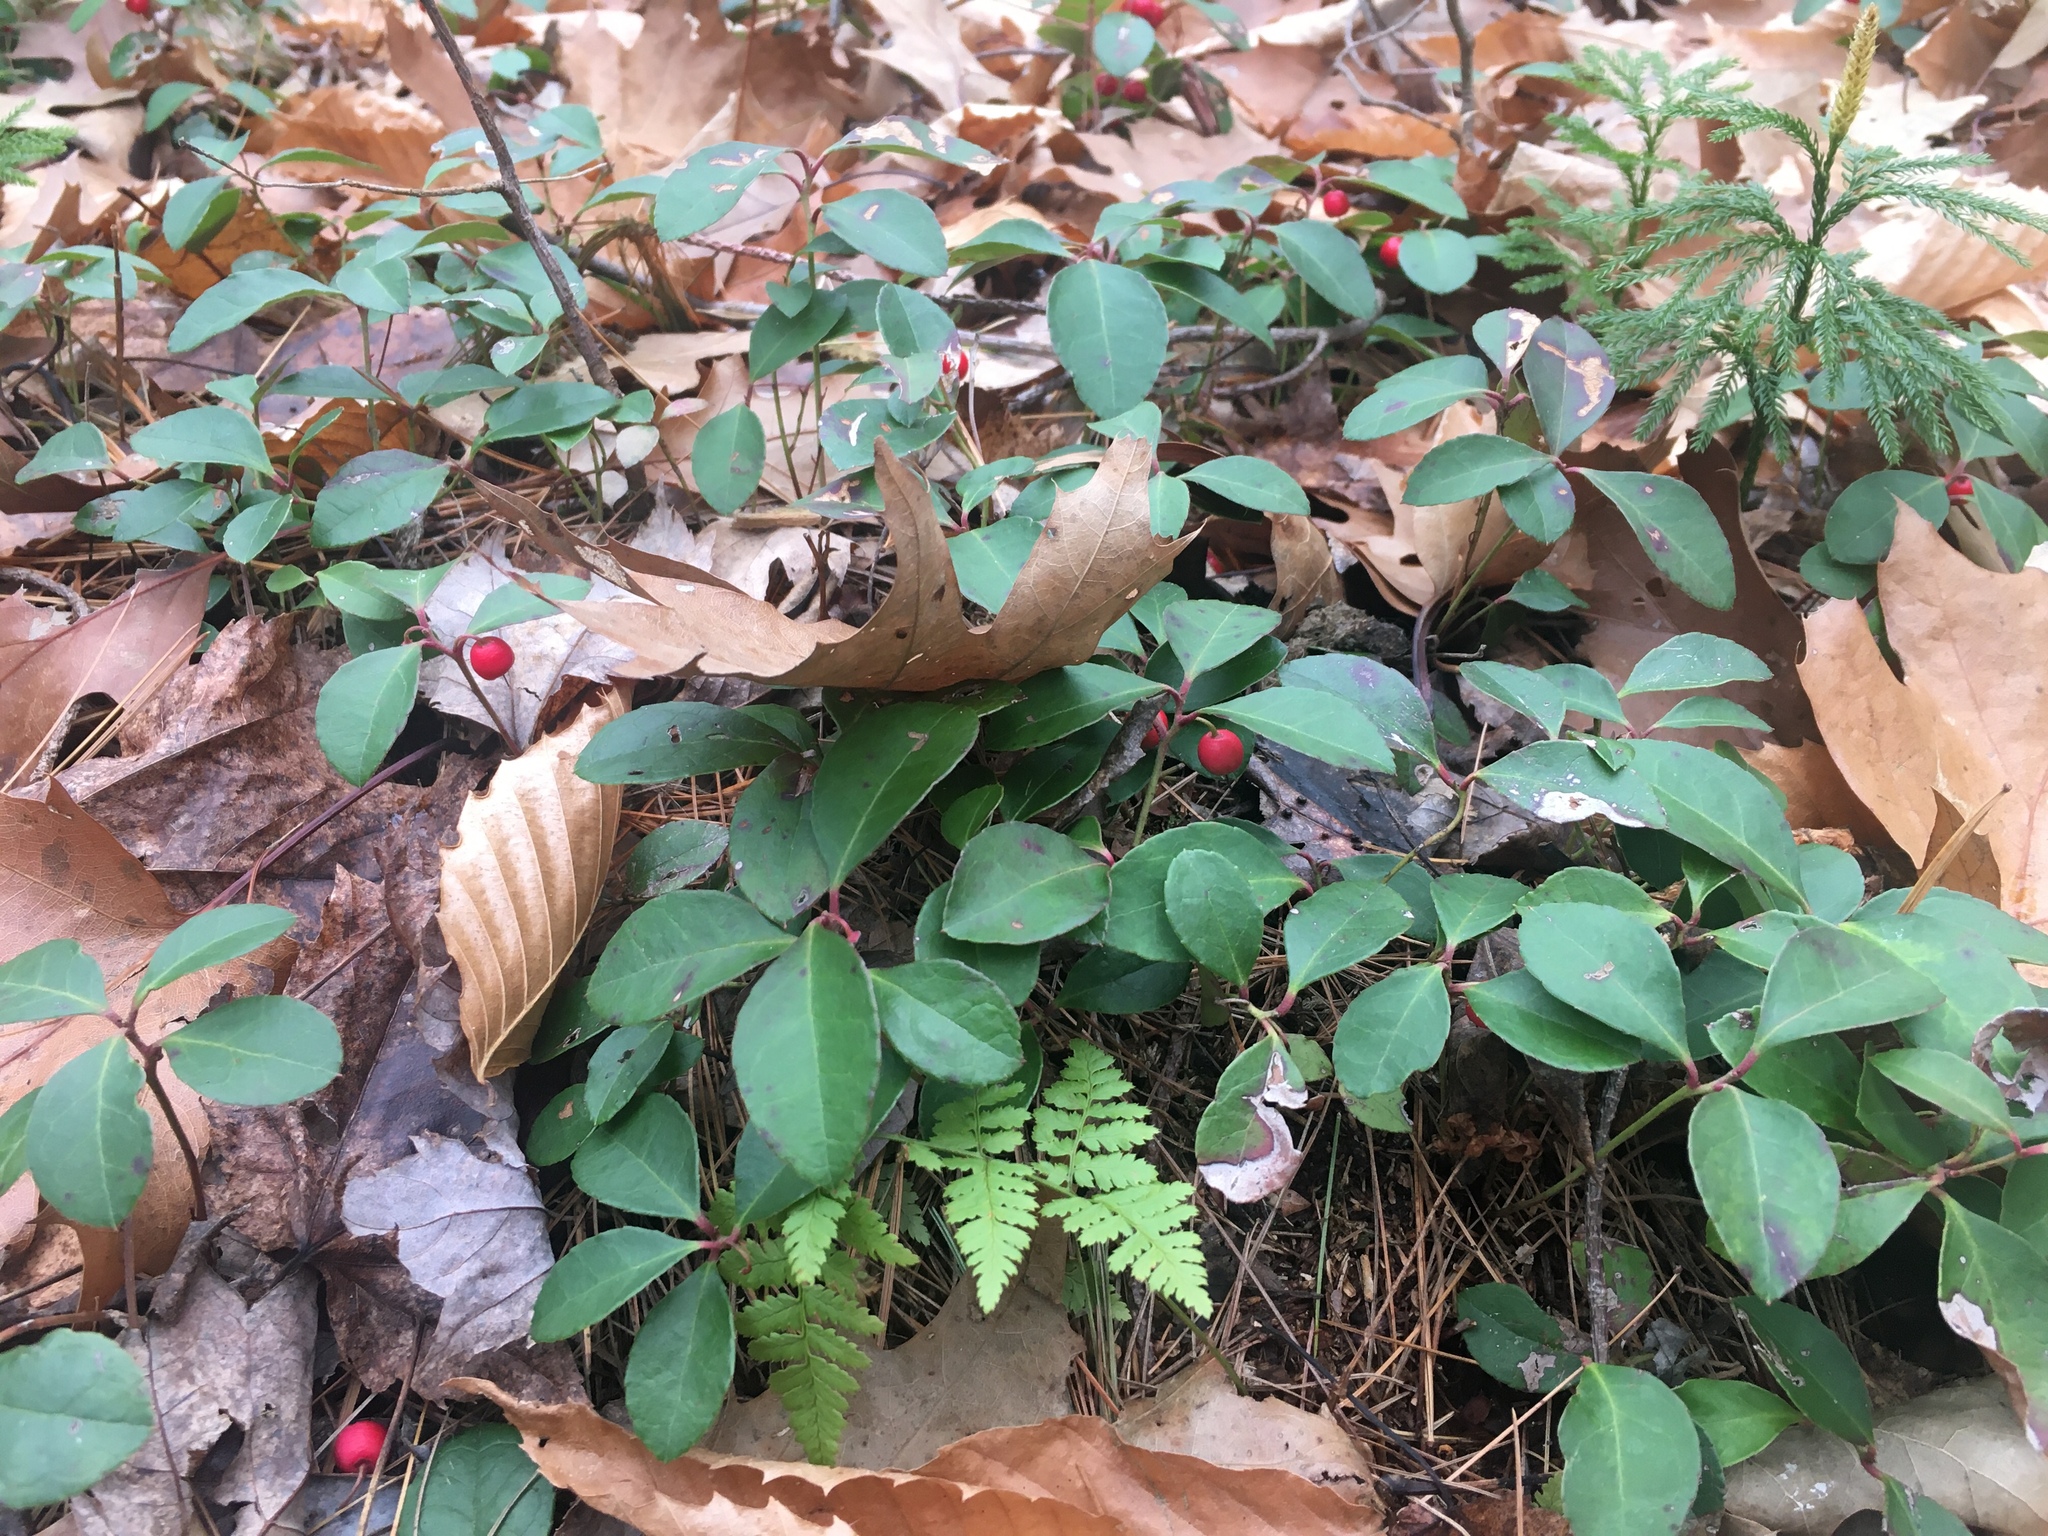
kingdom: Plantae
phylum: Tracheophyta
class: Magnoliopsida
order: Ericales
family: Ericaceae
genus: Gaultheria
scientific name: Gaultheria procumbens
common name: Checkerberry
